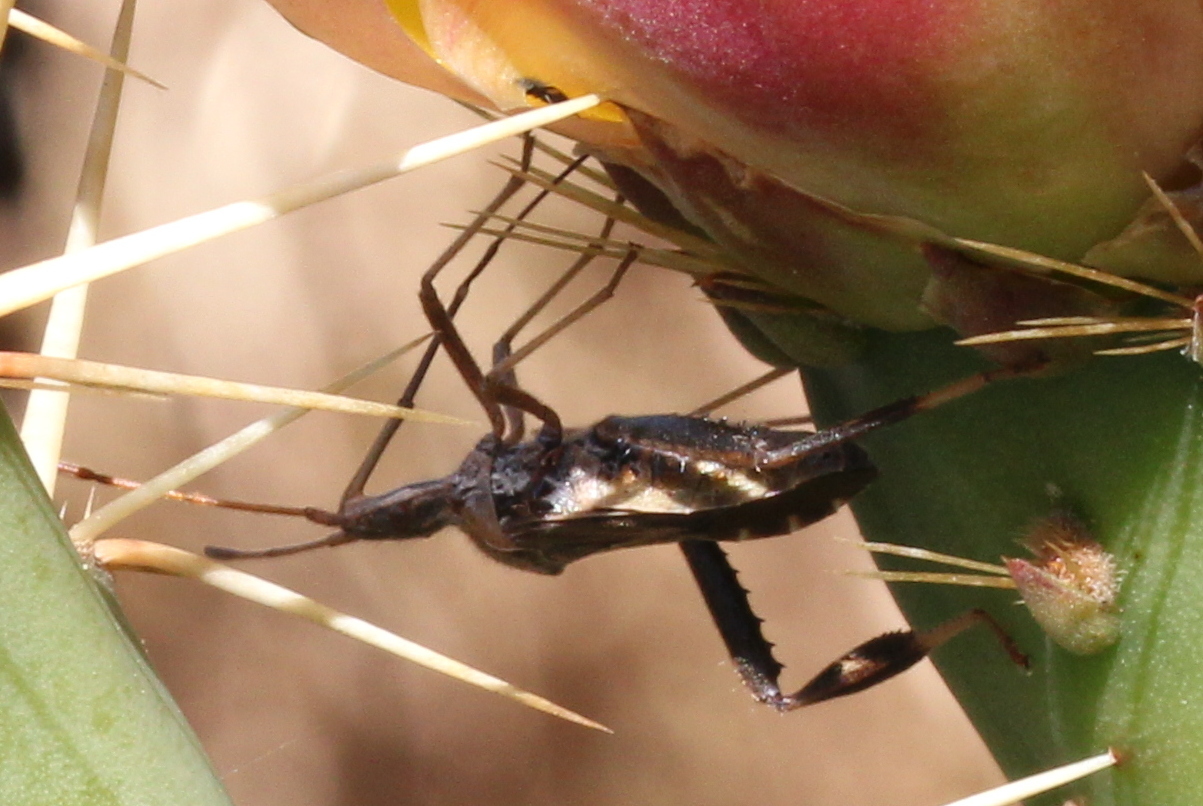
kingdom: Animalia
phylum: Arthropoda
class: Insecta
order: Hemiptera
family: Coreidae
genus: Narnia
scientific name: Narnia femorata
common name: Leaf-footed cactus bug
